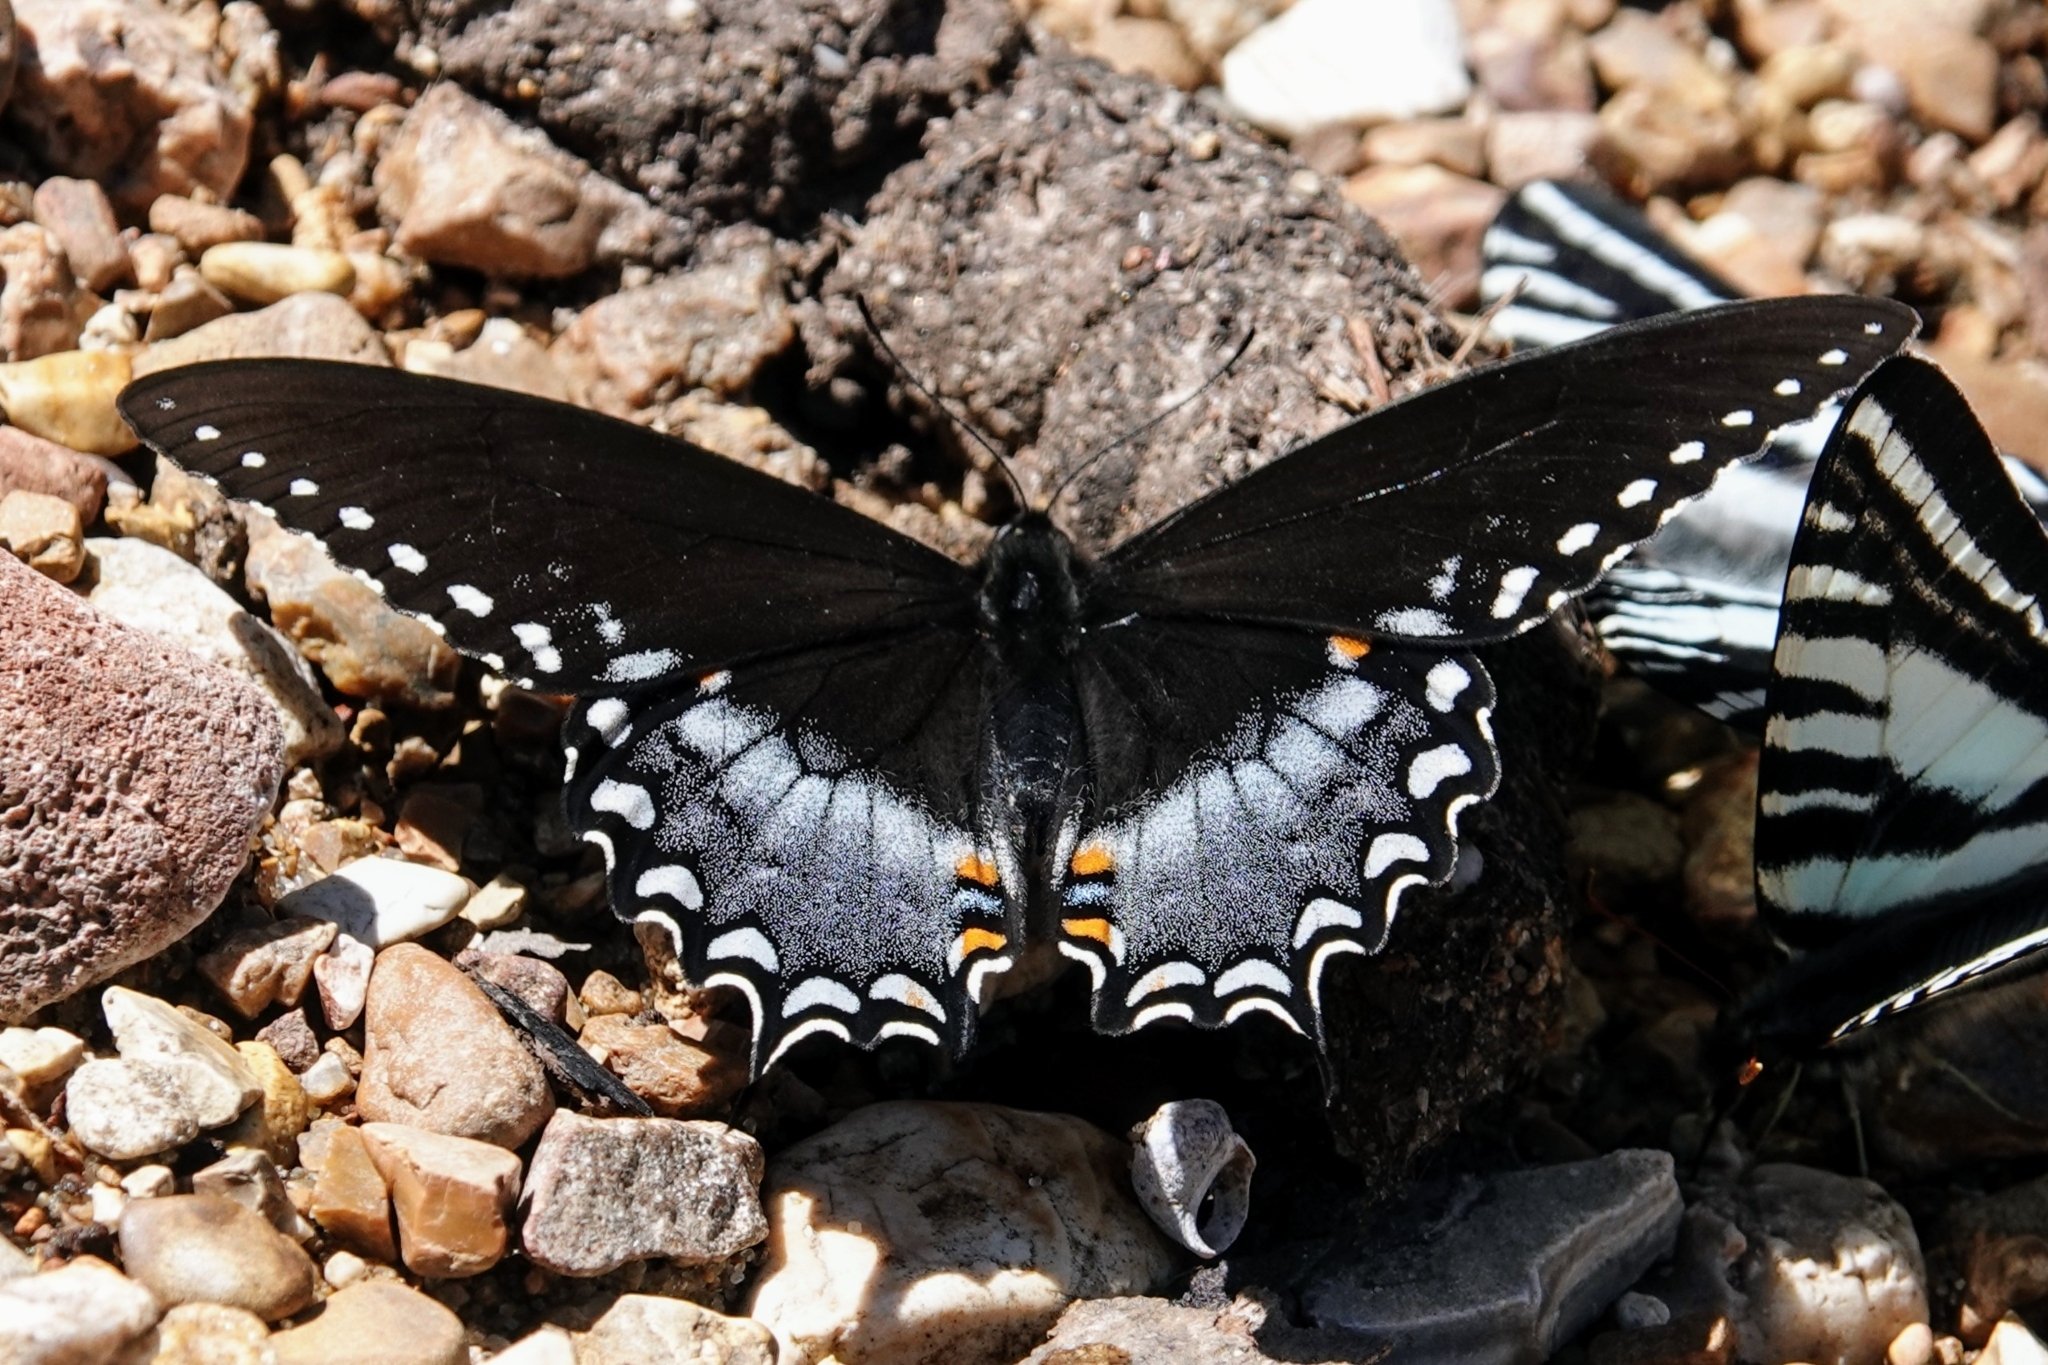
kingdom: Animalia
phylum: Arthropoda
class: Insecta
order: Lepidoptera
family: Papilionidae
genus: Papilio
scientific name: Papilio troilus
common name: Spicebush swallowtail
